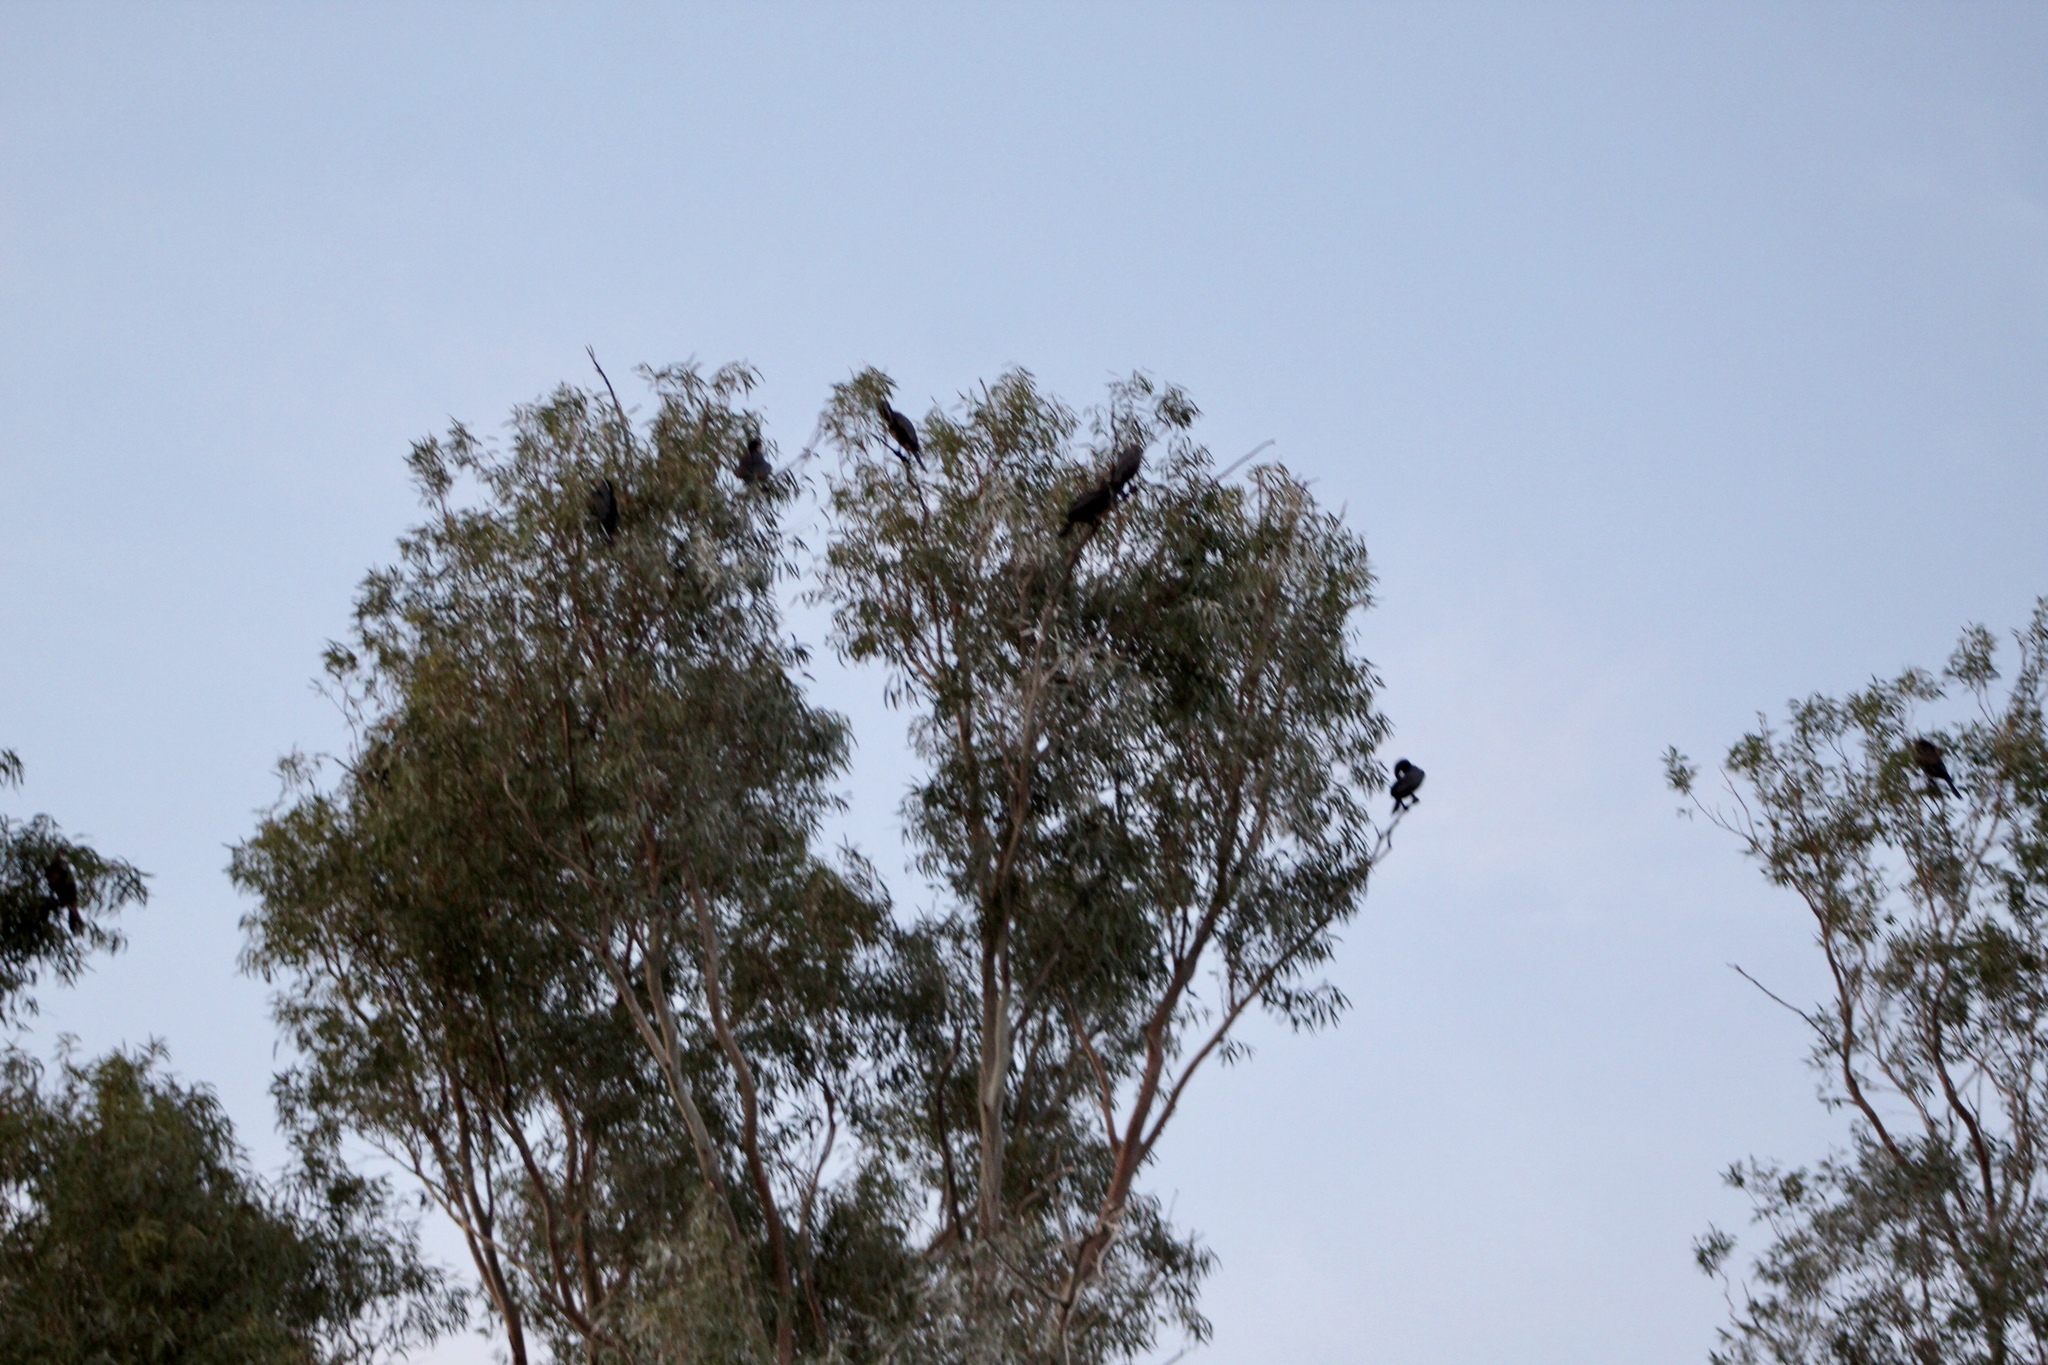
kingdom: Animalia
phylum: Chordata
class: Aves
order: Suliformes
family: Phalacrocoracidae
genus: Phalacrocorax
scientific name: Phalacrocorax brasilianus
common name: Neotropic cormorant
